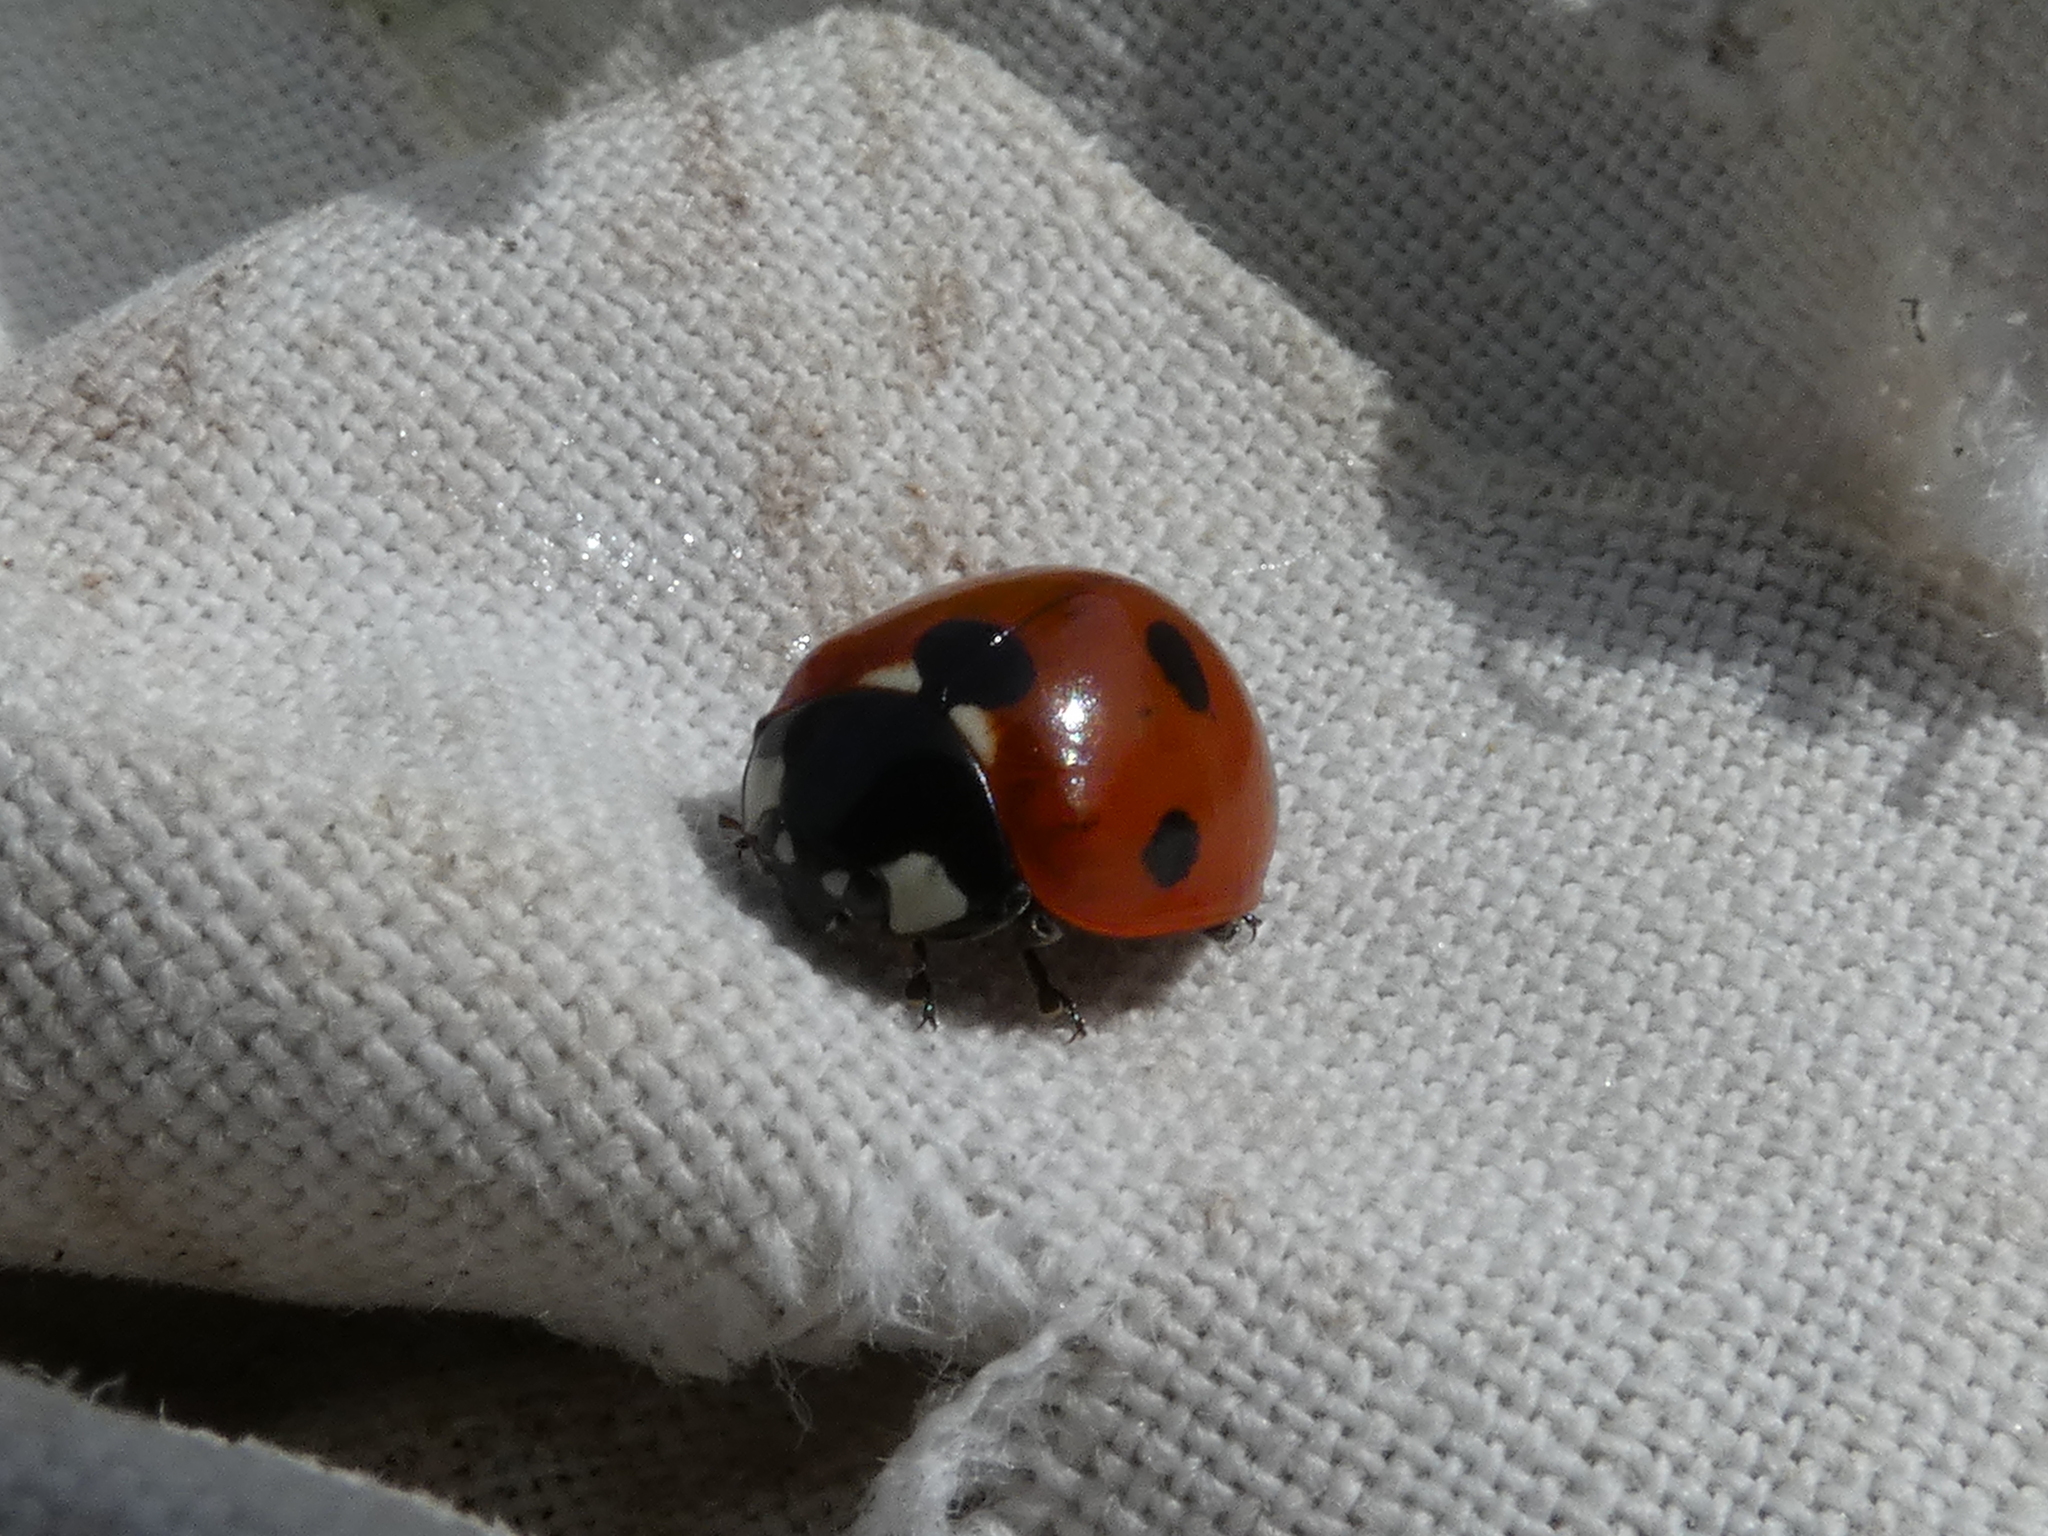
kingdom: Animalia
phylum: Arthropoda
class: Insecta
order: Coleoptera
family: Coccinellidae
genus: Coccinella
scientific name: Coccinella septempunctata
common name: Sevenspotted lady beetle
